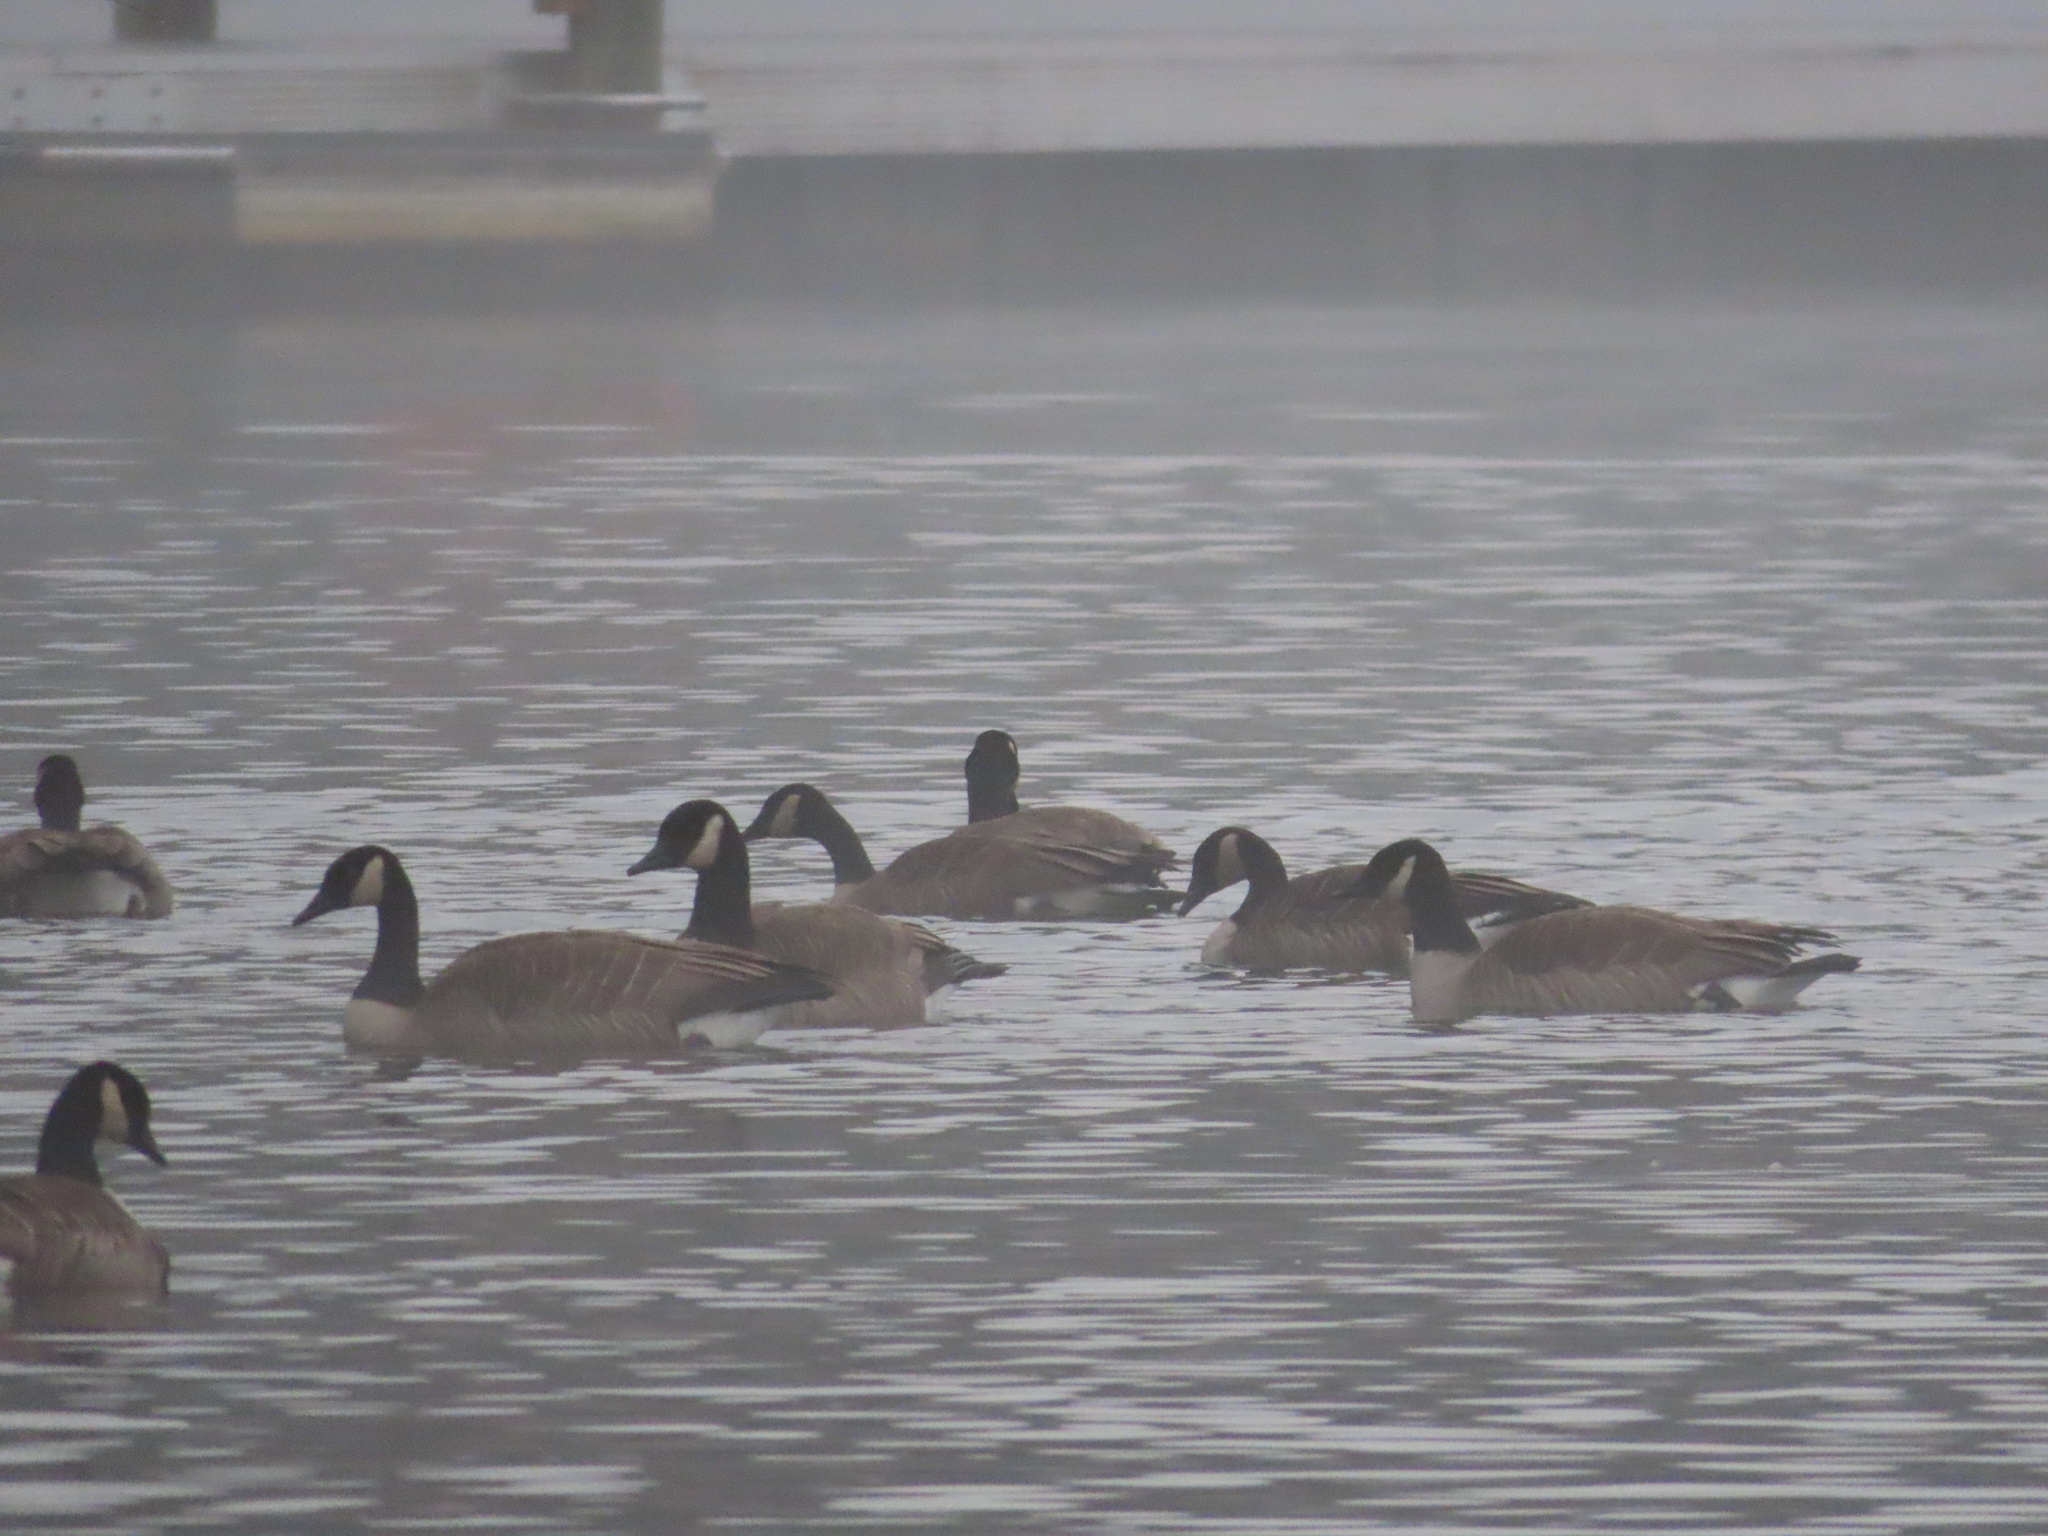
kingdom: Animalia
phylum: Chordata
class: Aves
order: Anseriformes
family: Anatidae
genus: Branta
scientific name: Branta canadensis
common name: Canada goose
